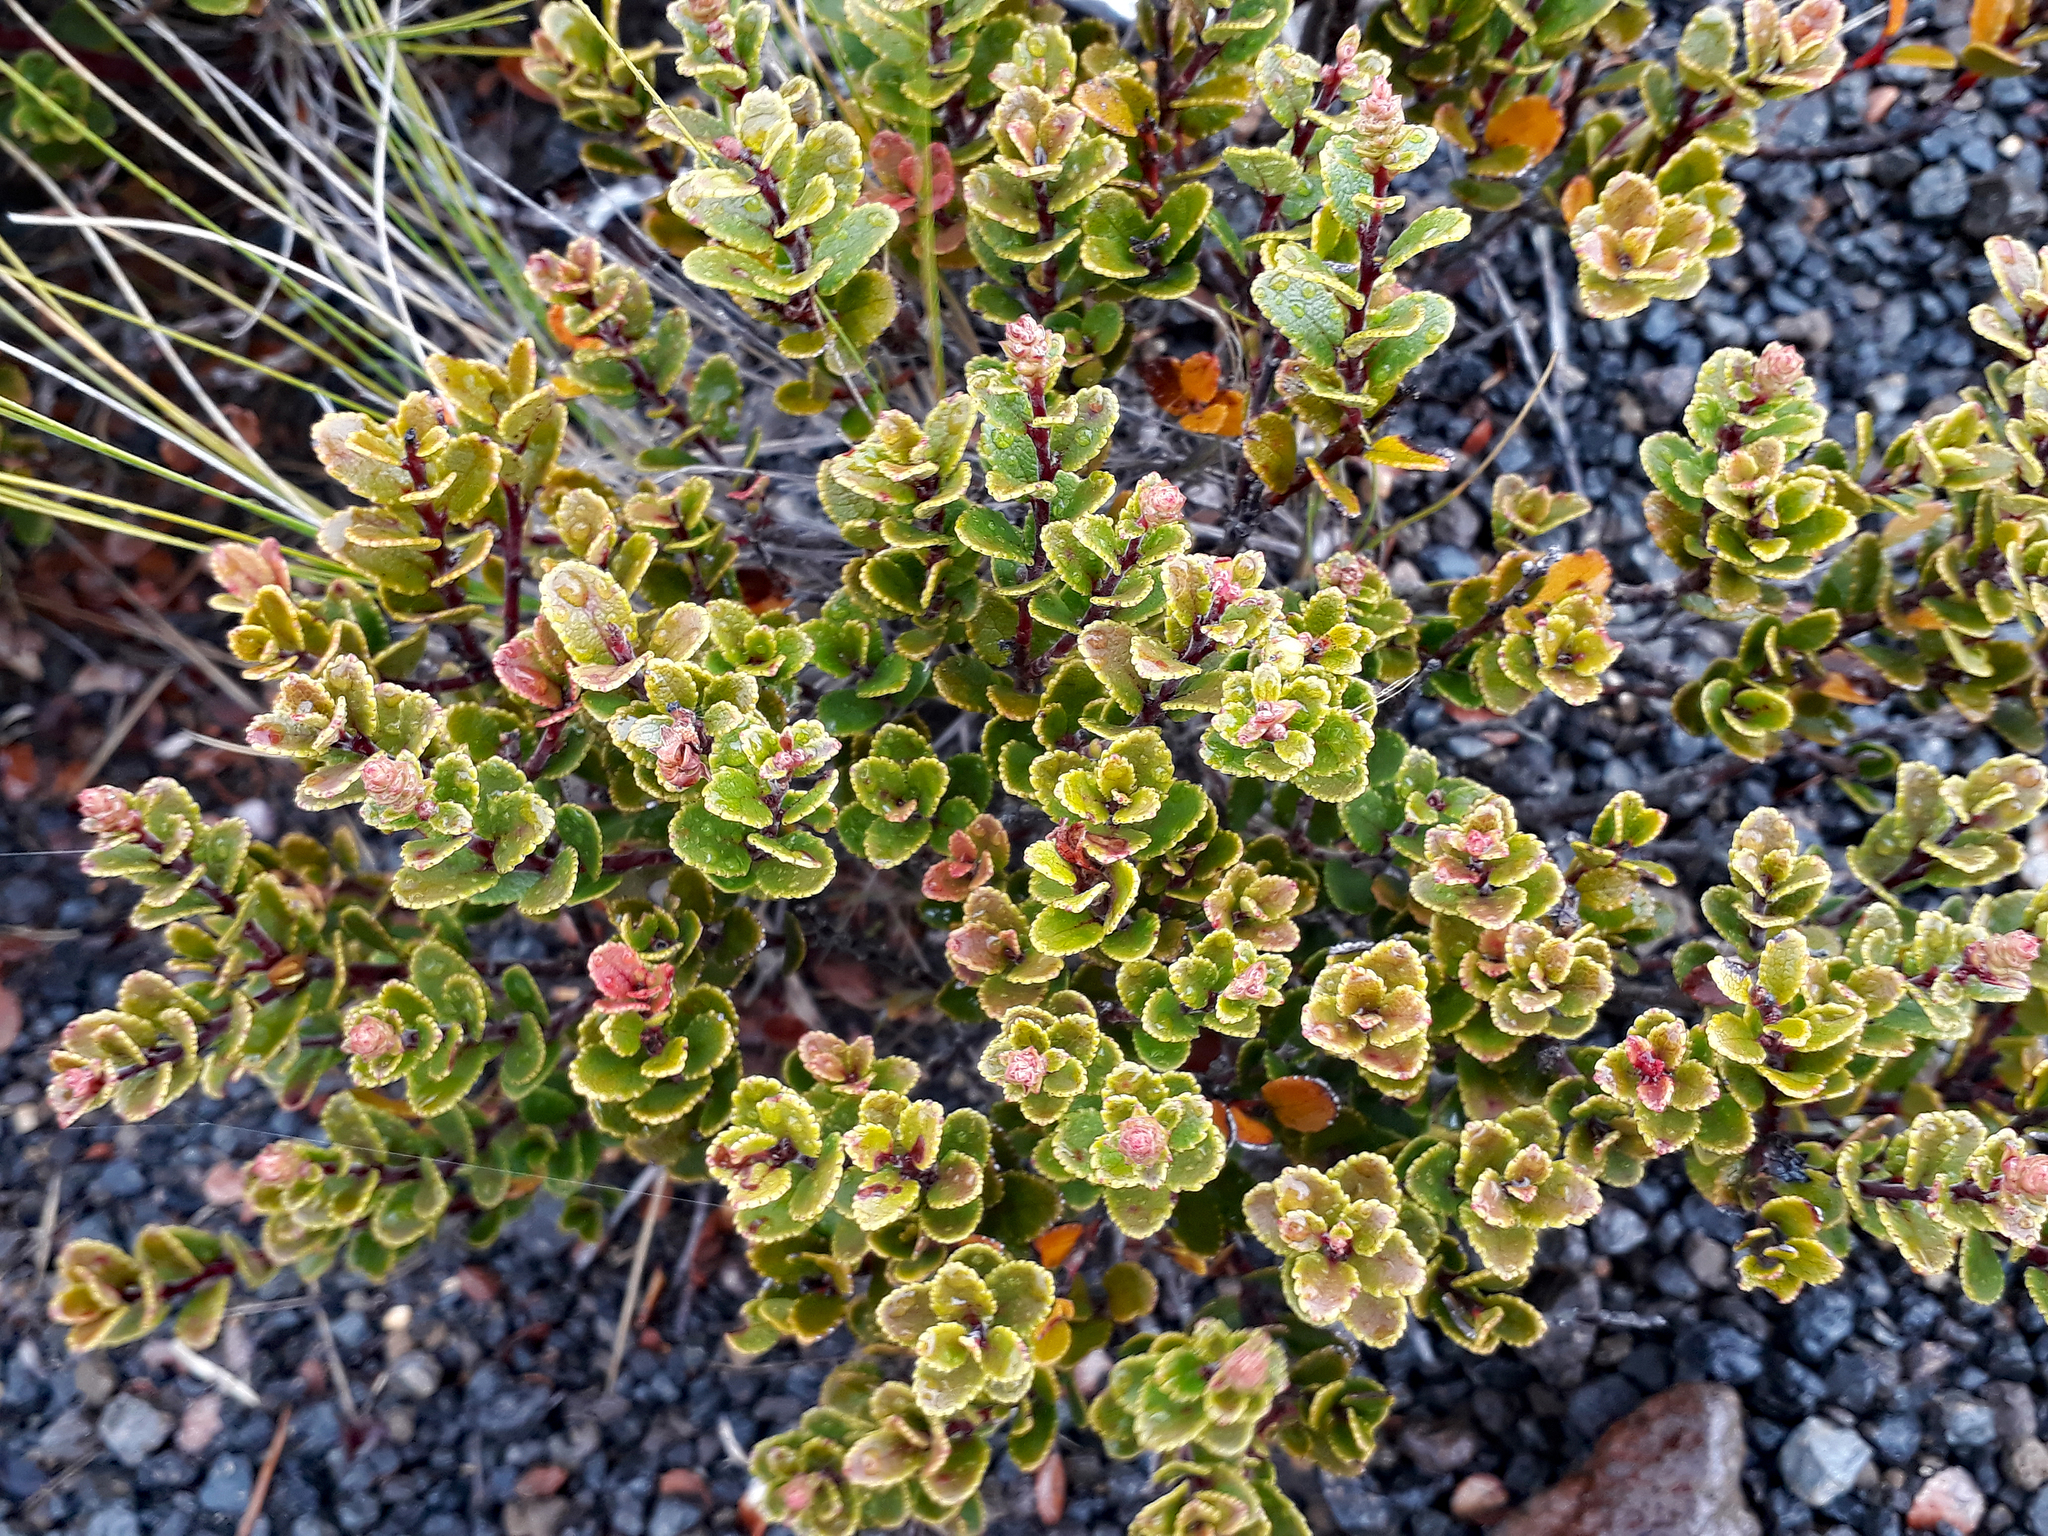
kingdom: Plantae
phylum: Tracheophyta
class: Magnoliopsida
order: Ericales
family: Ericaceae
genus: Gaultheria
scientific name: Gaultheria colensoi
